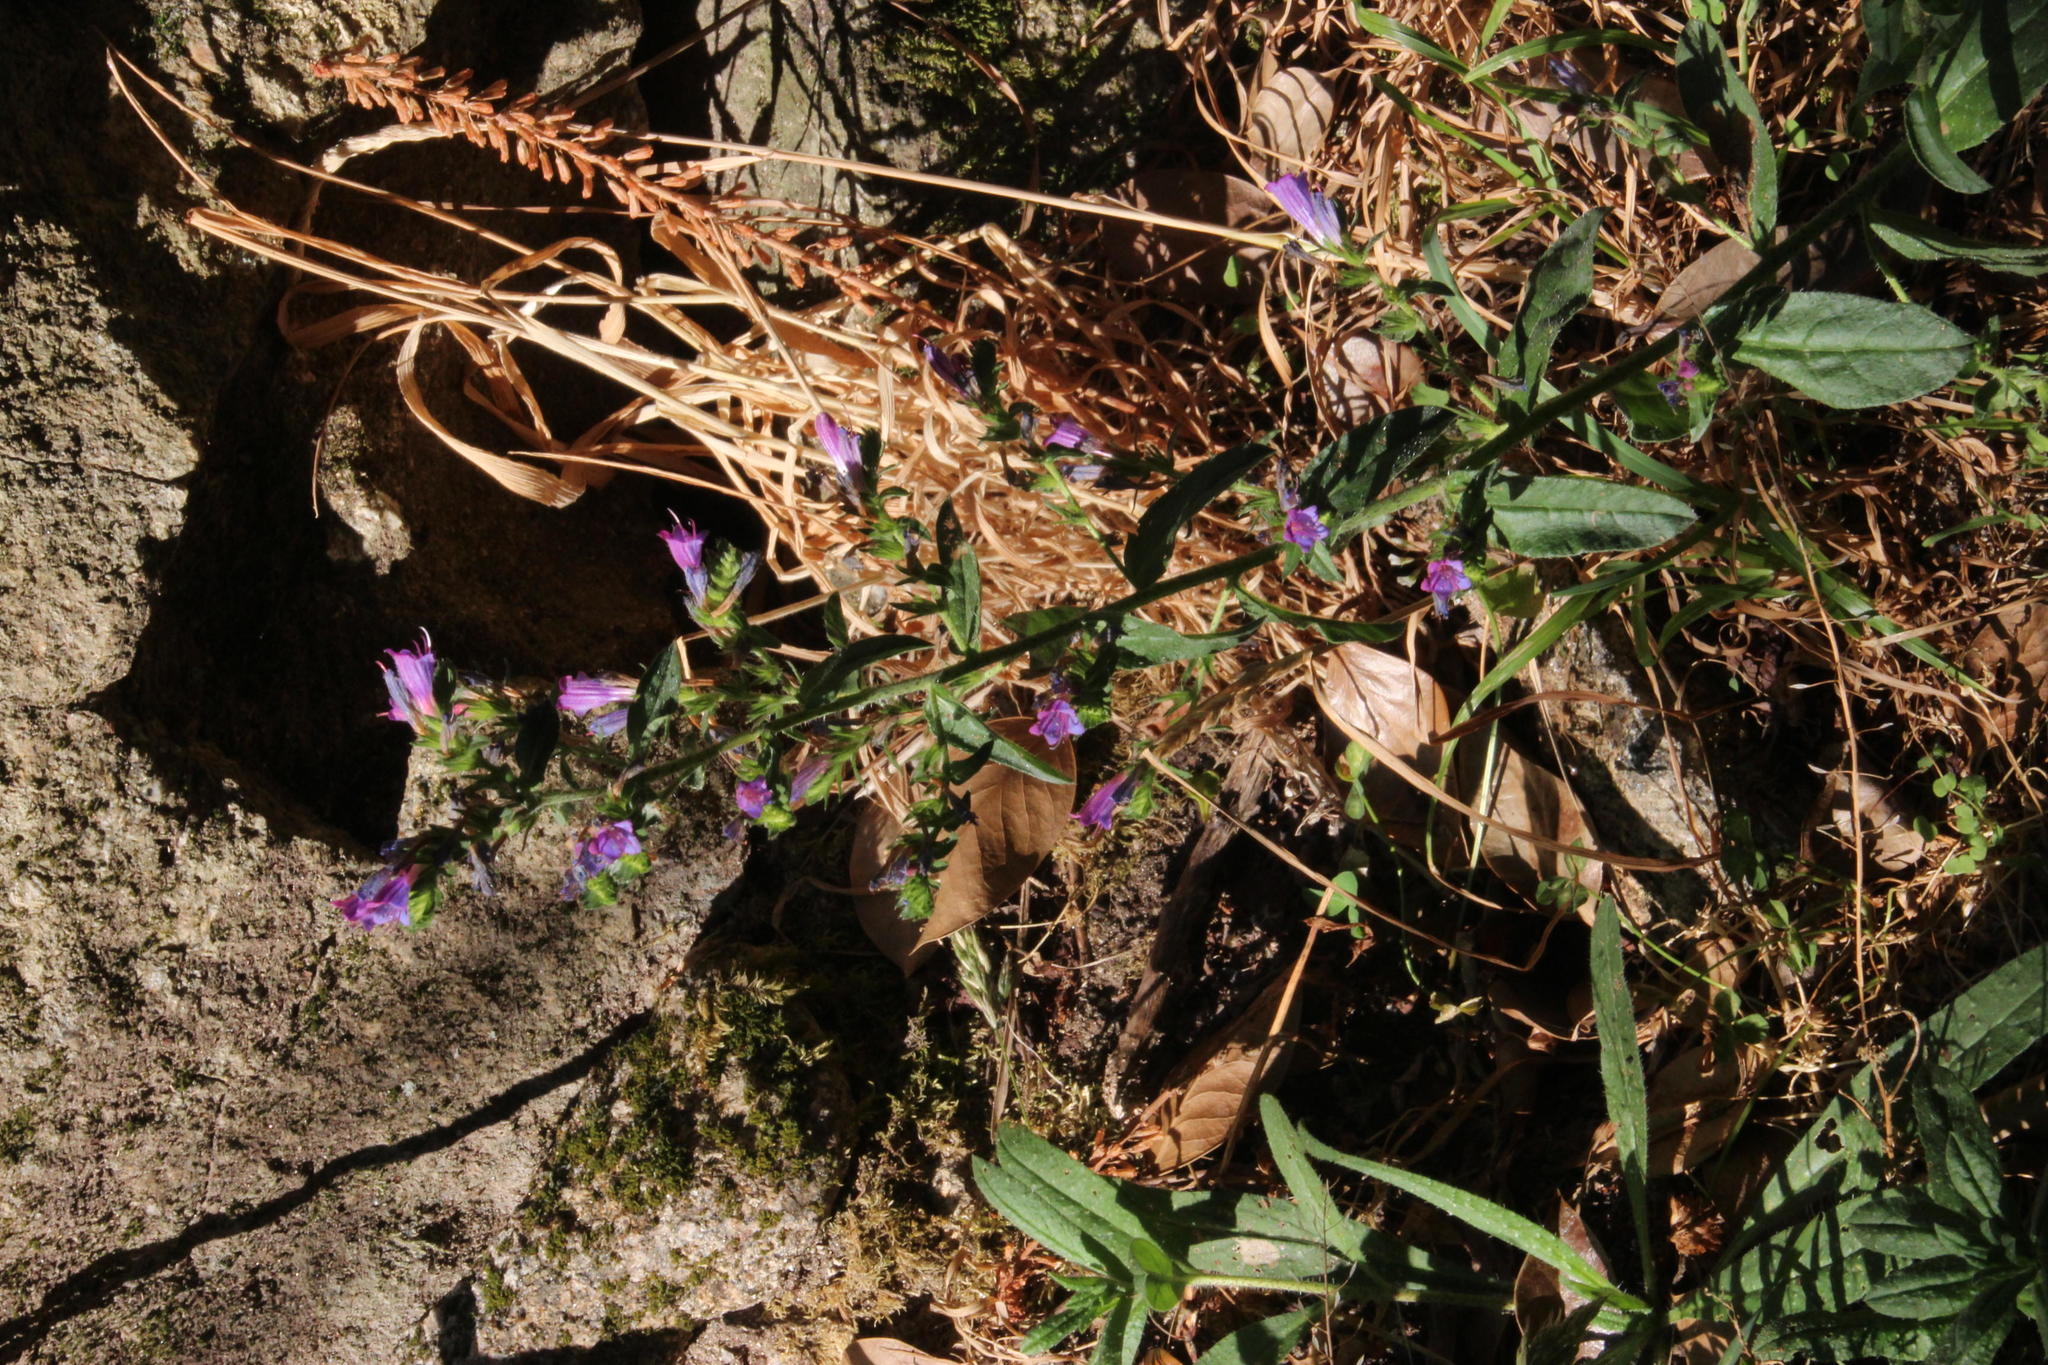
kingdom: Plantae
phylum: Tracheophyta
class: Magnoliopsida
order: Boraginales
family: Boraginaceae
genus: Echium
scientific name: Echium rosulatum
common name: Lax viper's-bugloss
